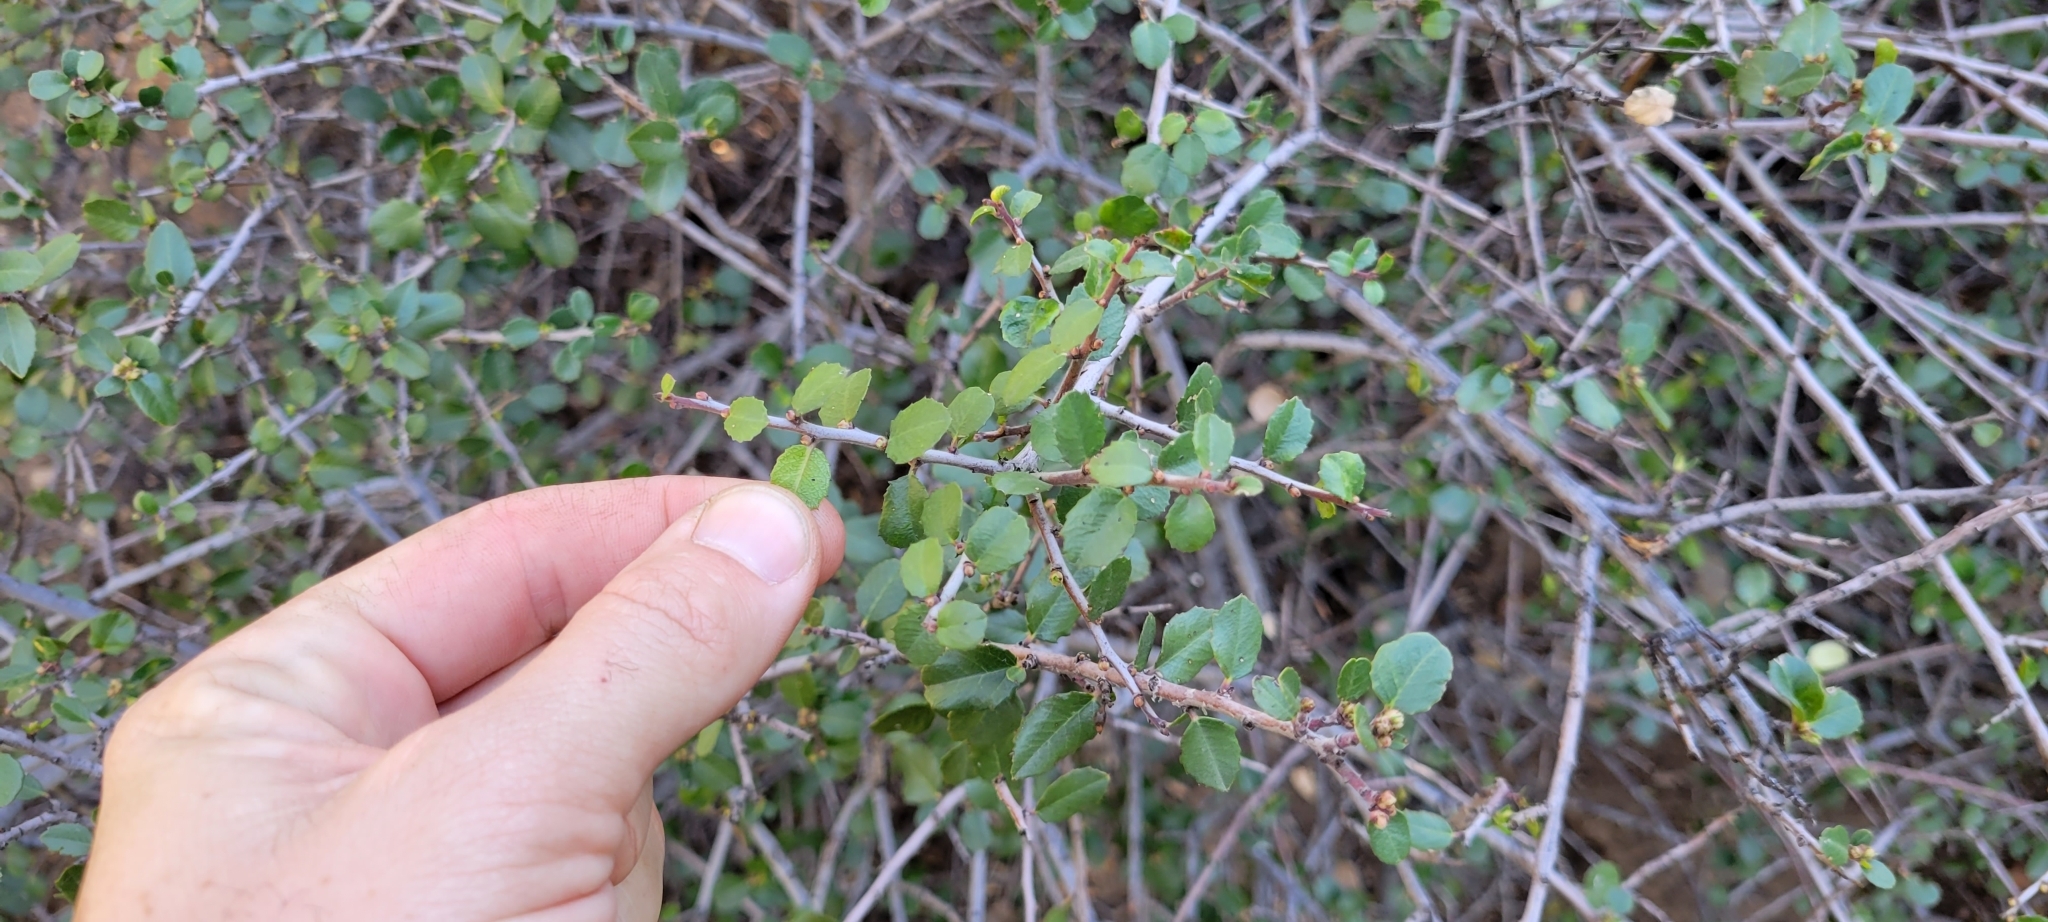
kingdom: Plantae
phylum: Tracheophyta
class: Magnoliopsida
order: Rosales
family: Rhamnaceae
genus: Endotropis
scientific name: Endotropis crocea
